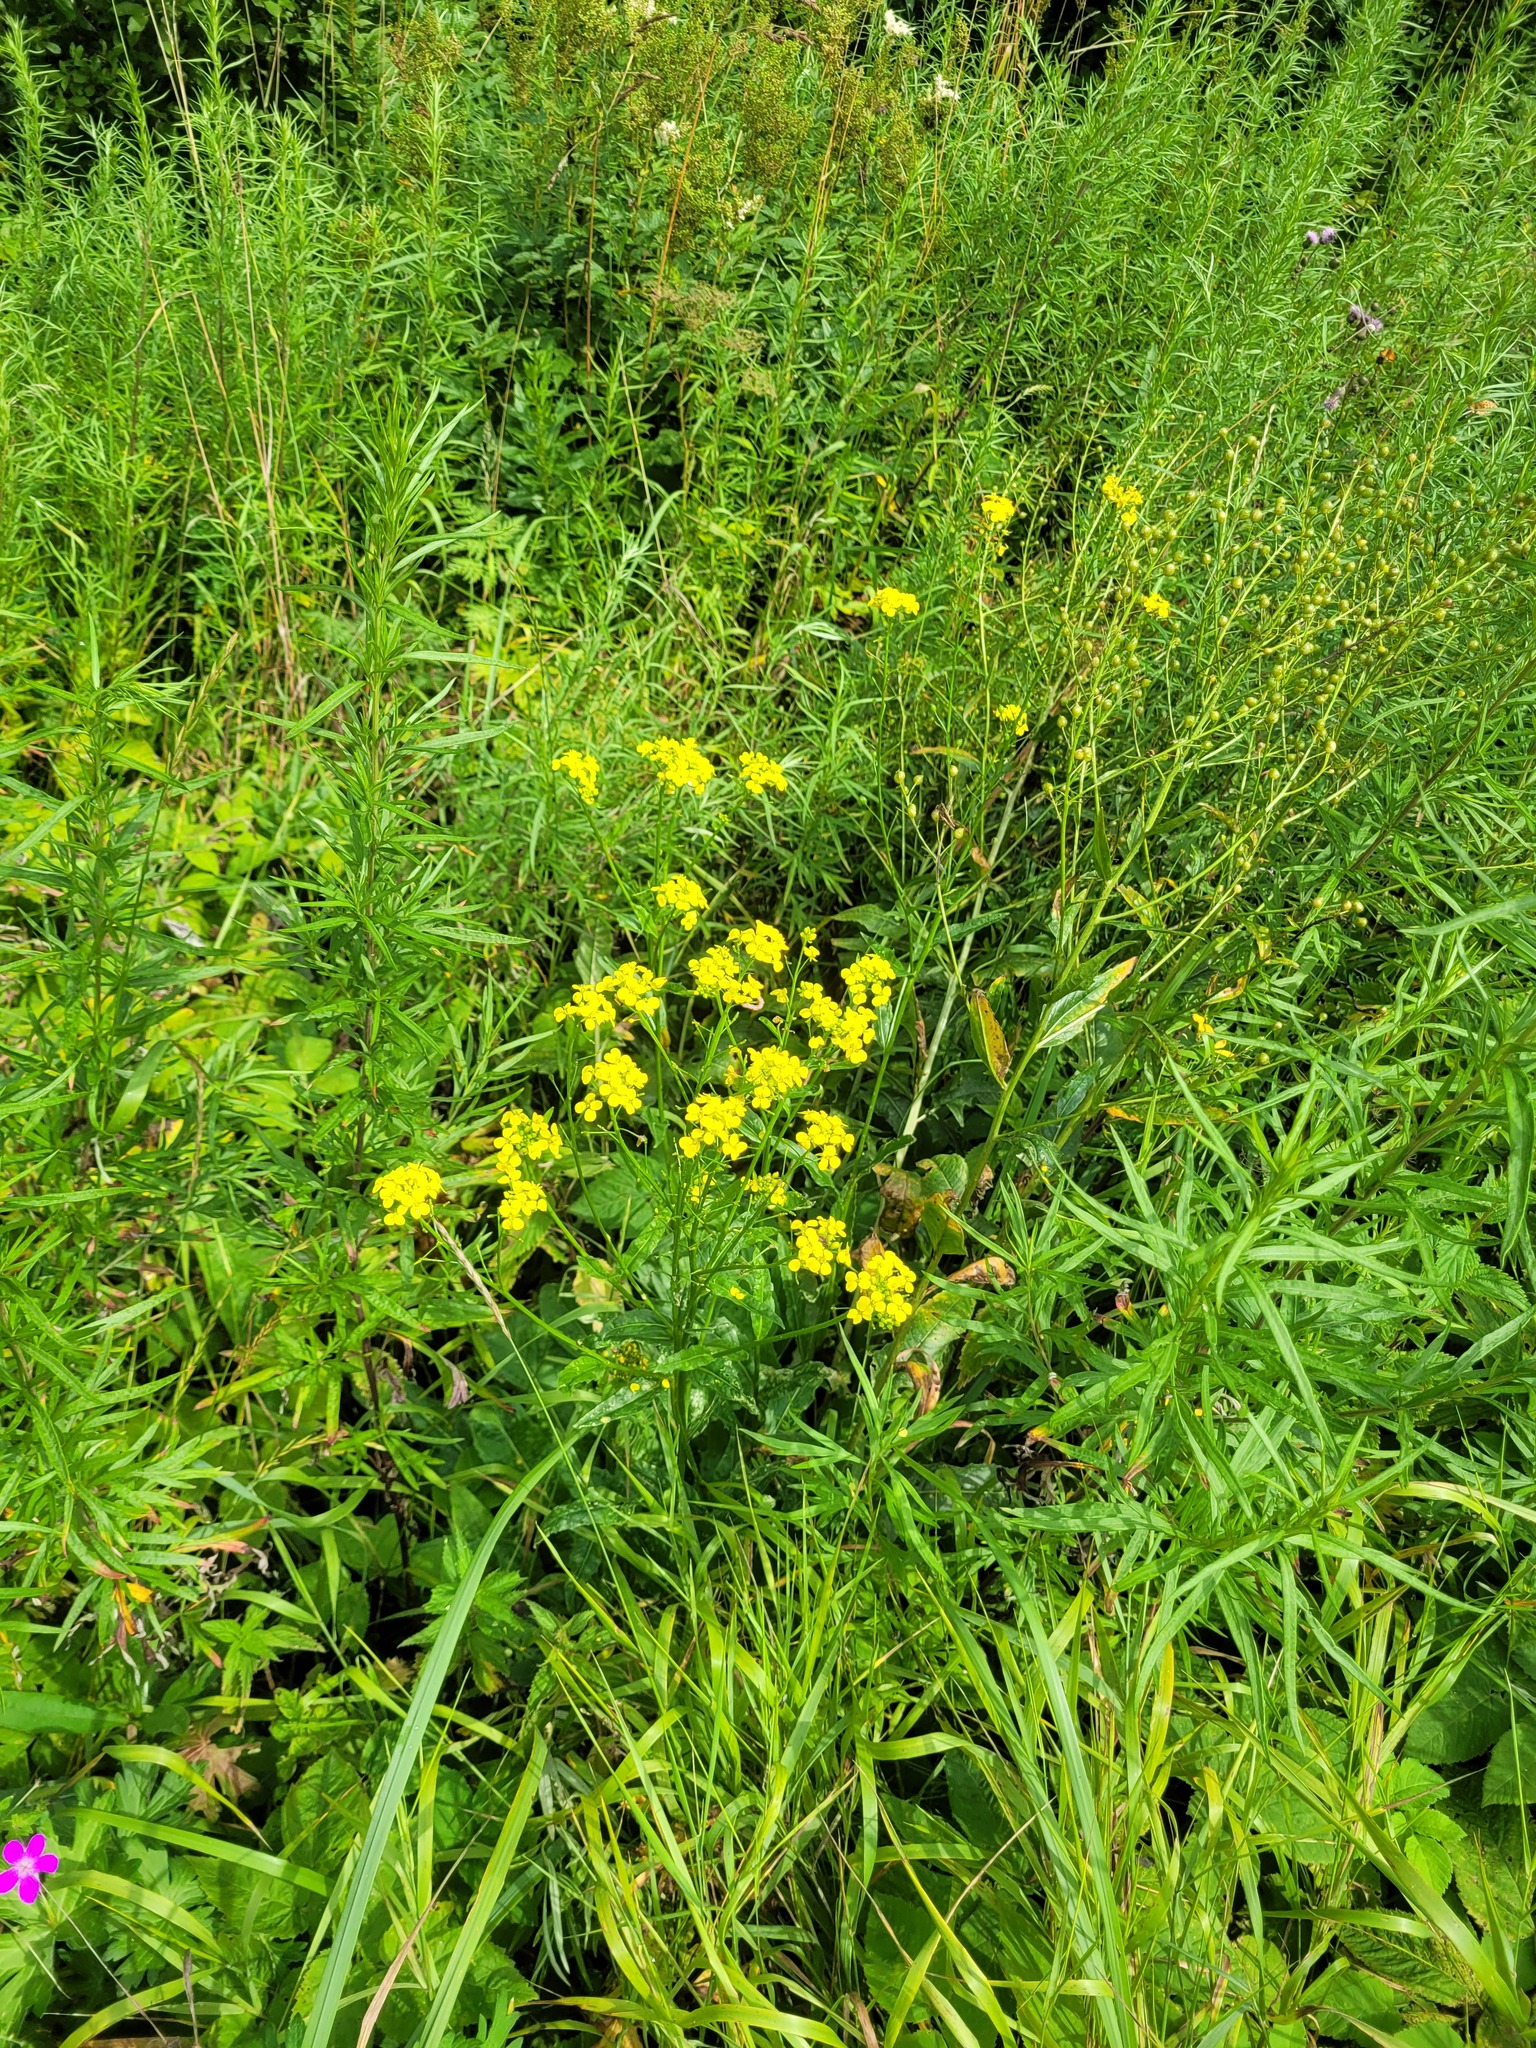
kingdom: Plantae
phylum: Tracheophyta
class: Magnoliopsida
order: Brassicales
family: Brassicaceae
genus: Bunias
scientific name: Bunias orientalis
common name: Warty-cabbage
